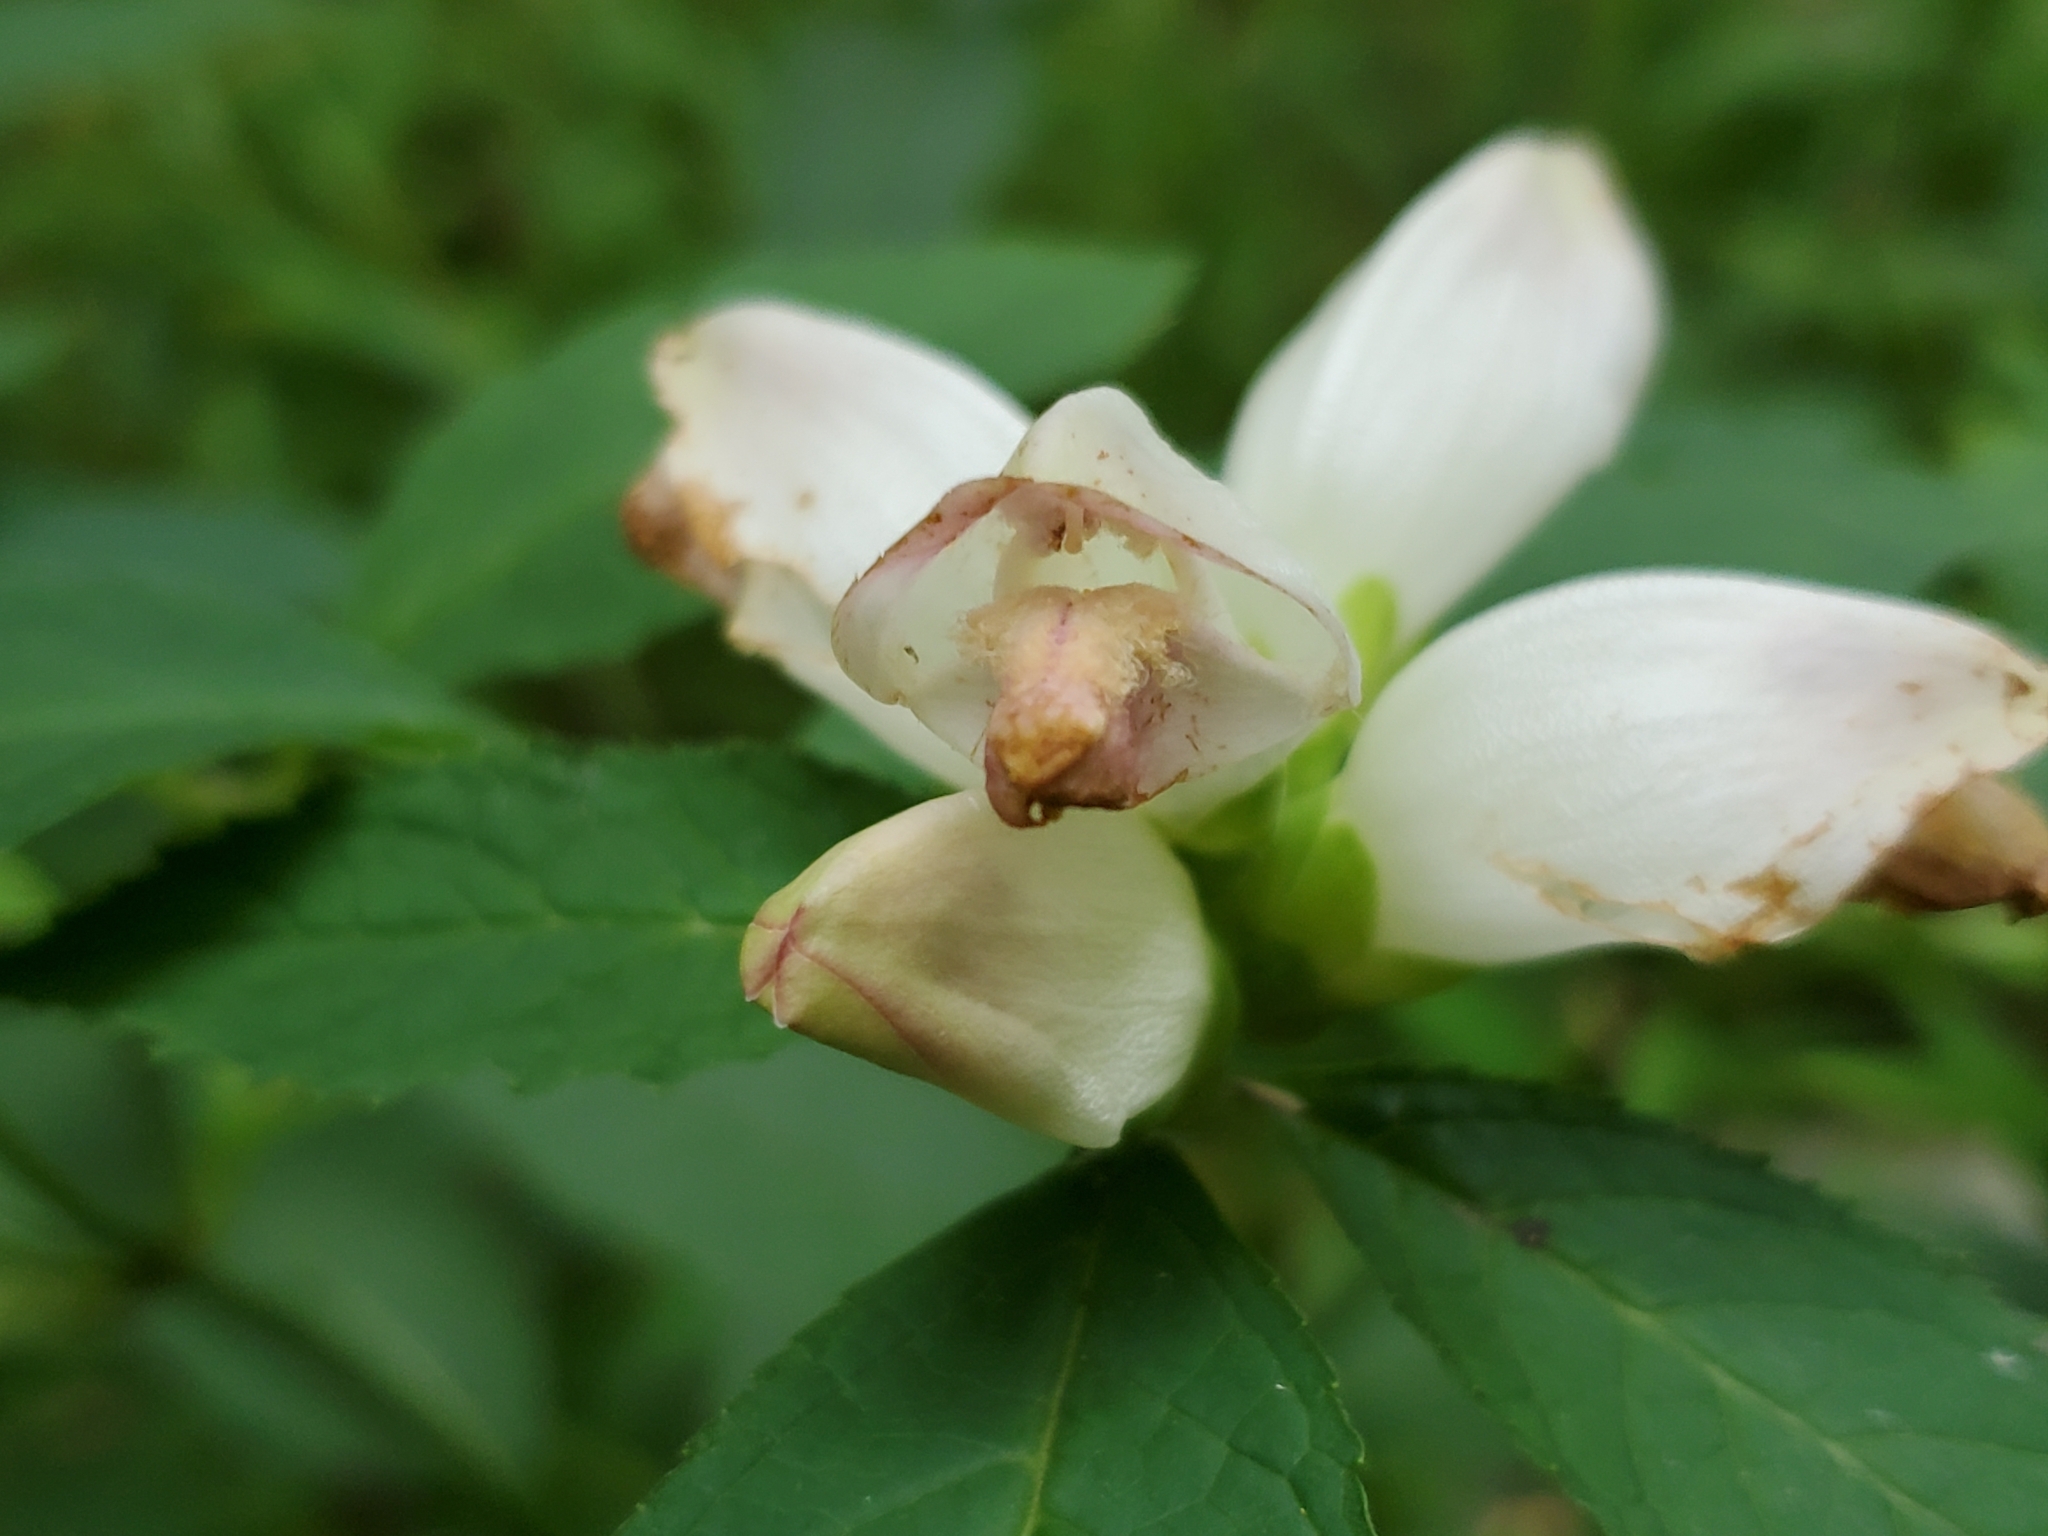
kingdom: Plantae
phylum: Tracheophyta
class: Magnoliopsida
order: Lamiales
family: Plantaginaceae
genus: Chelone
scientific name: Chelone glabra
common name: Snakehead
